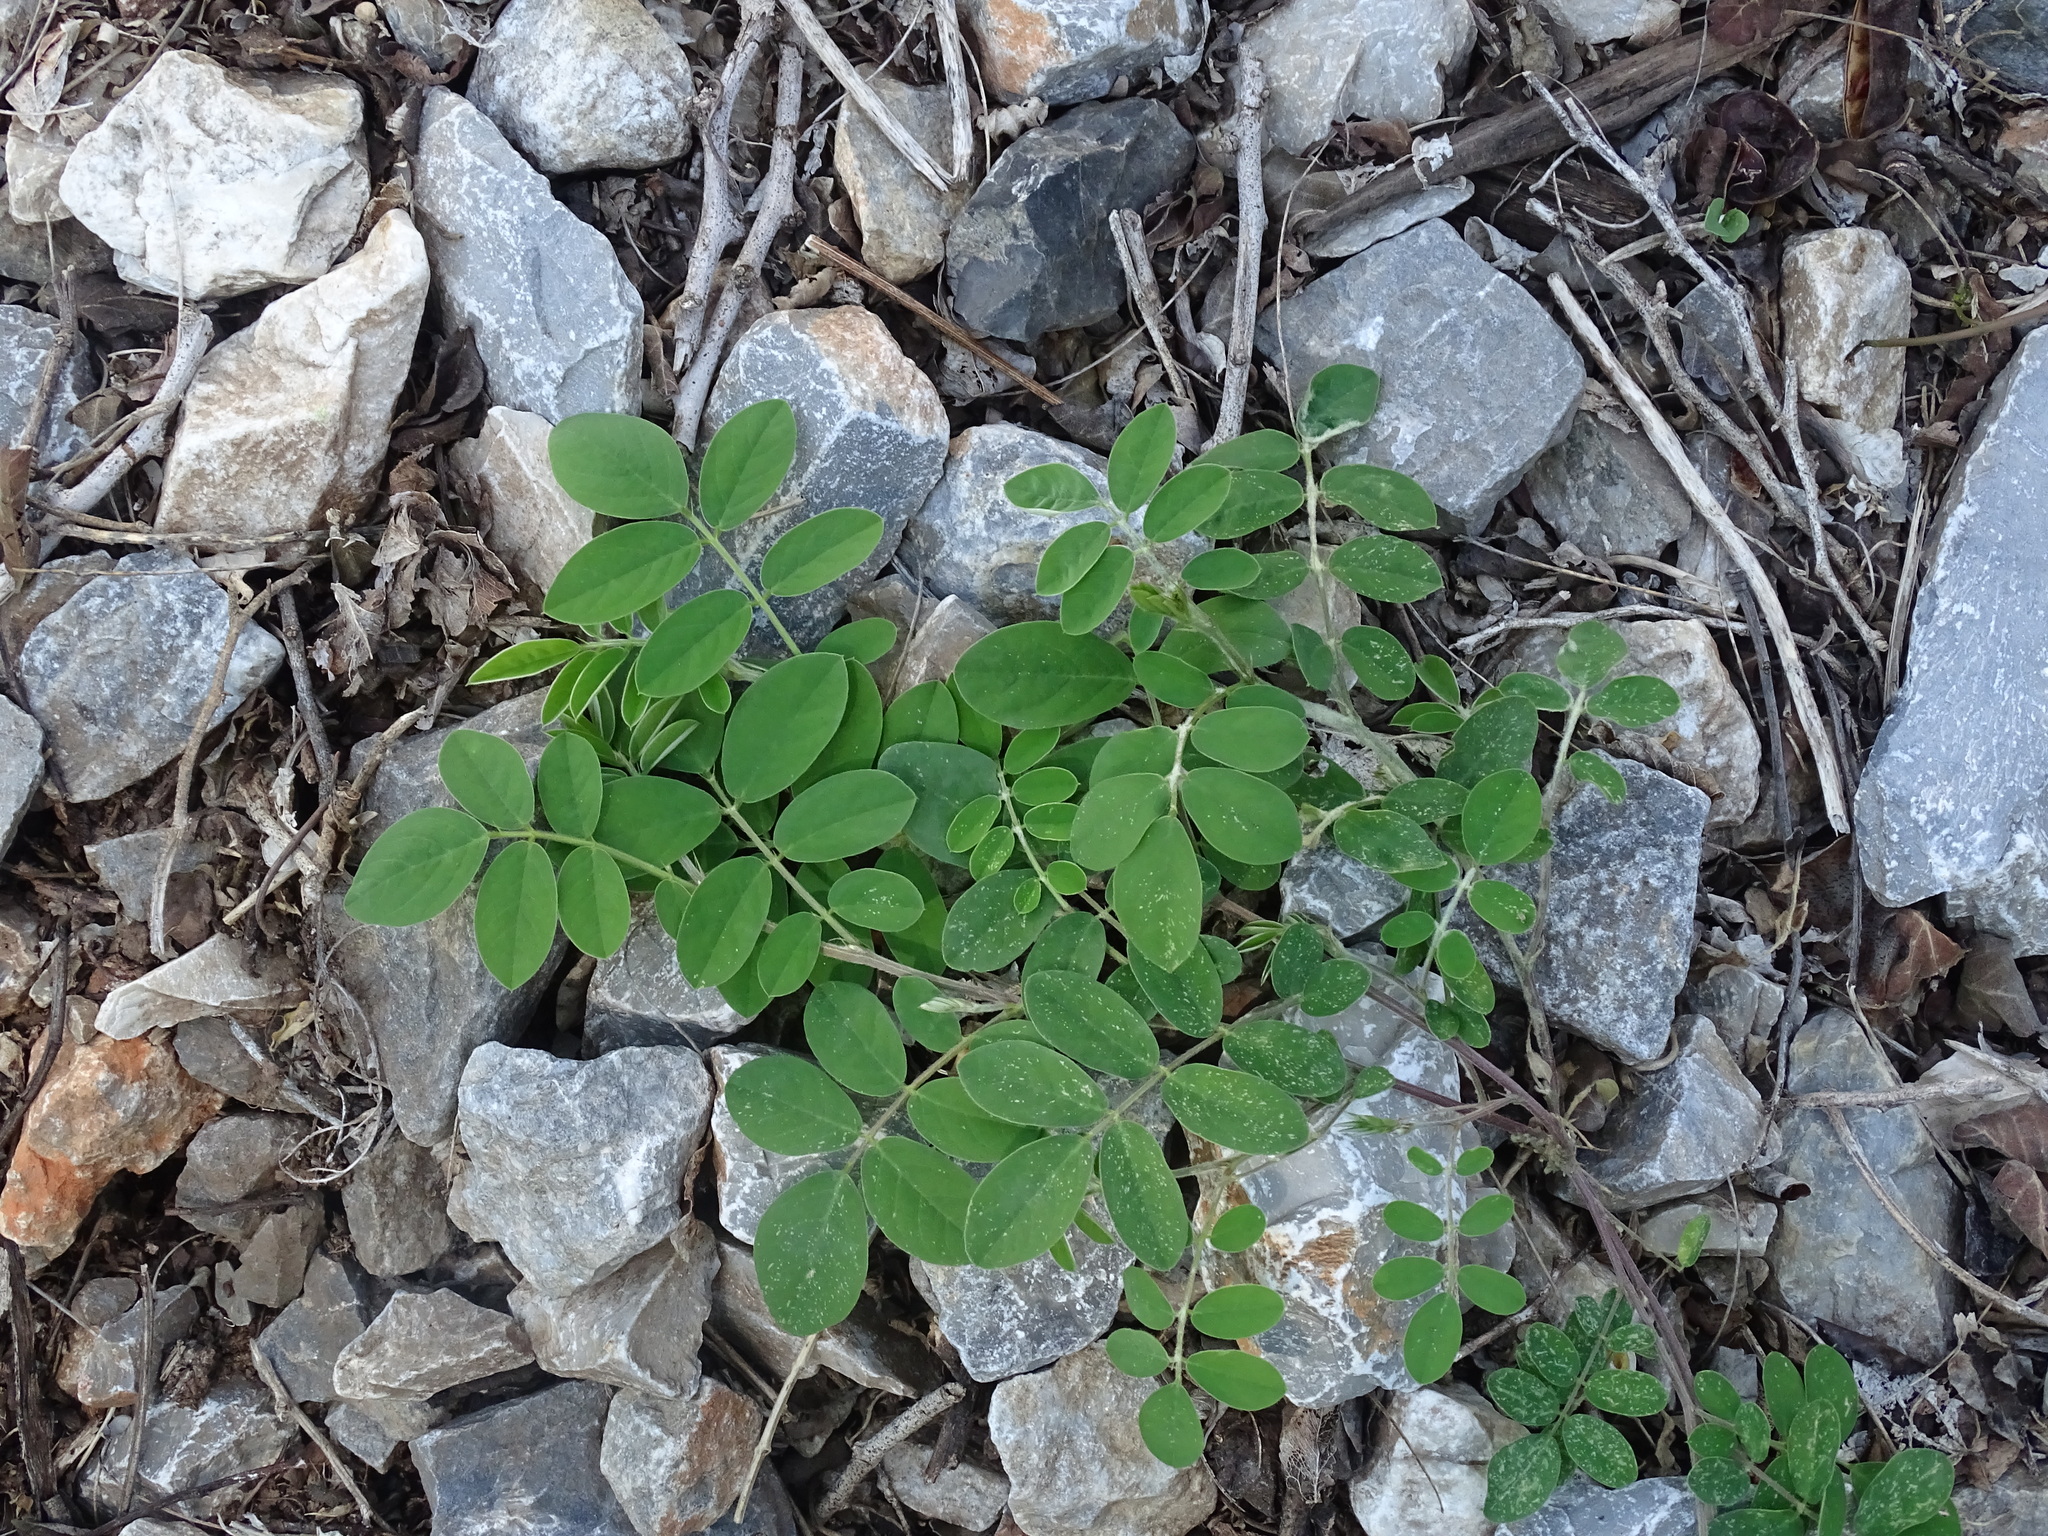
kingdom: Plantae
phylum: Tracheophyta
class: Magnoliopsida
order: Fabales
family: Fabaceae
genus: Tephrosia
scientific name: Tephrosia cinerea
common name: Ashen hoarypea
